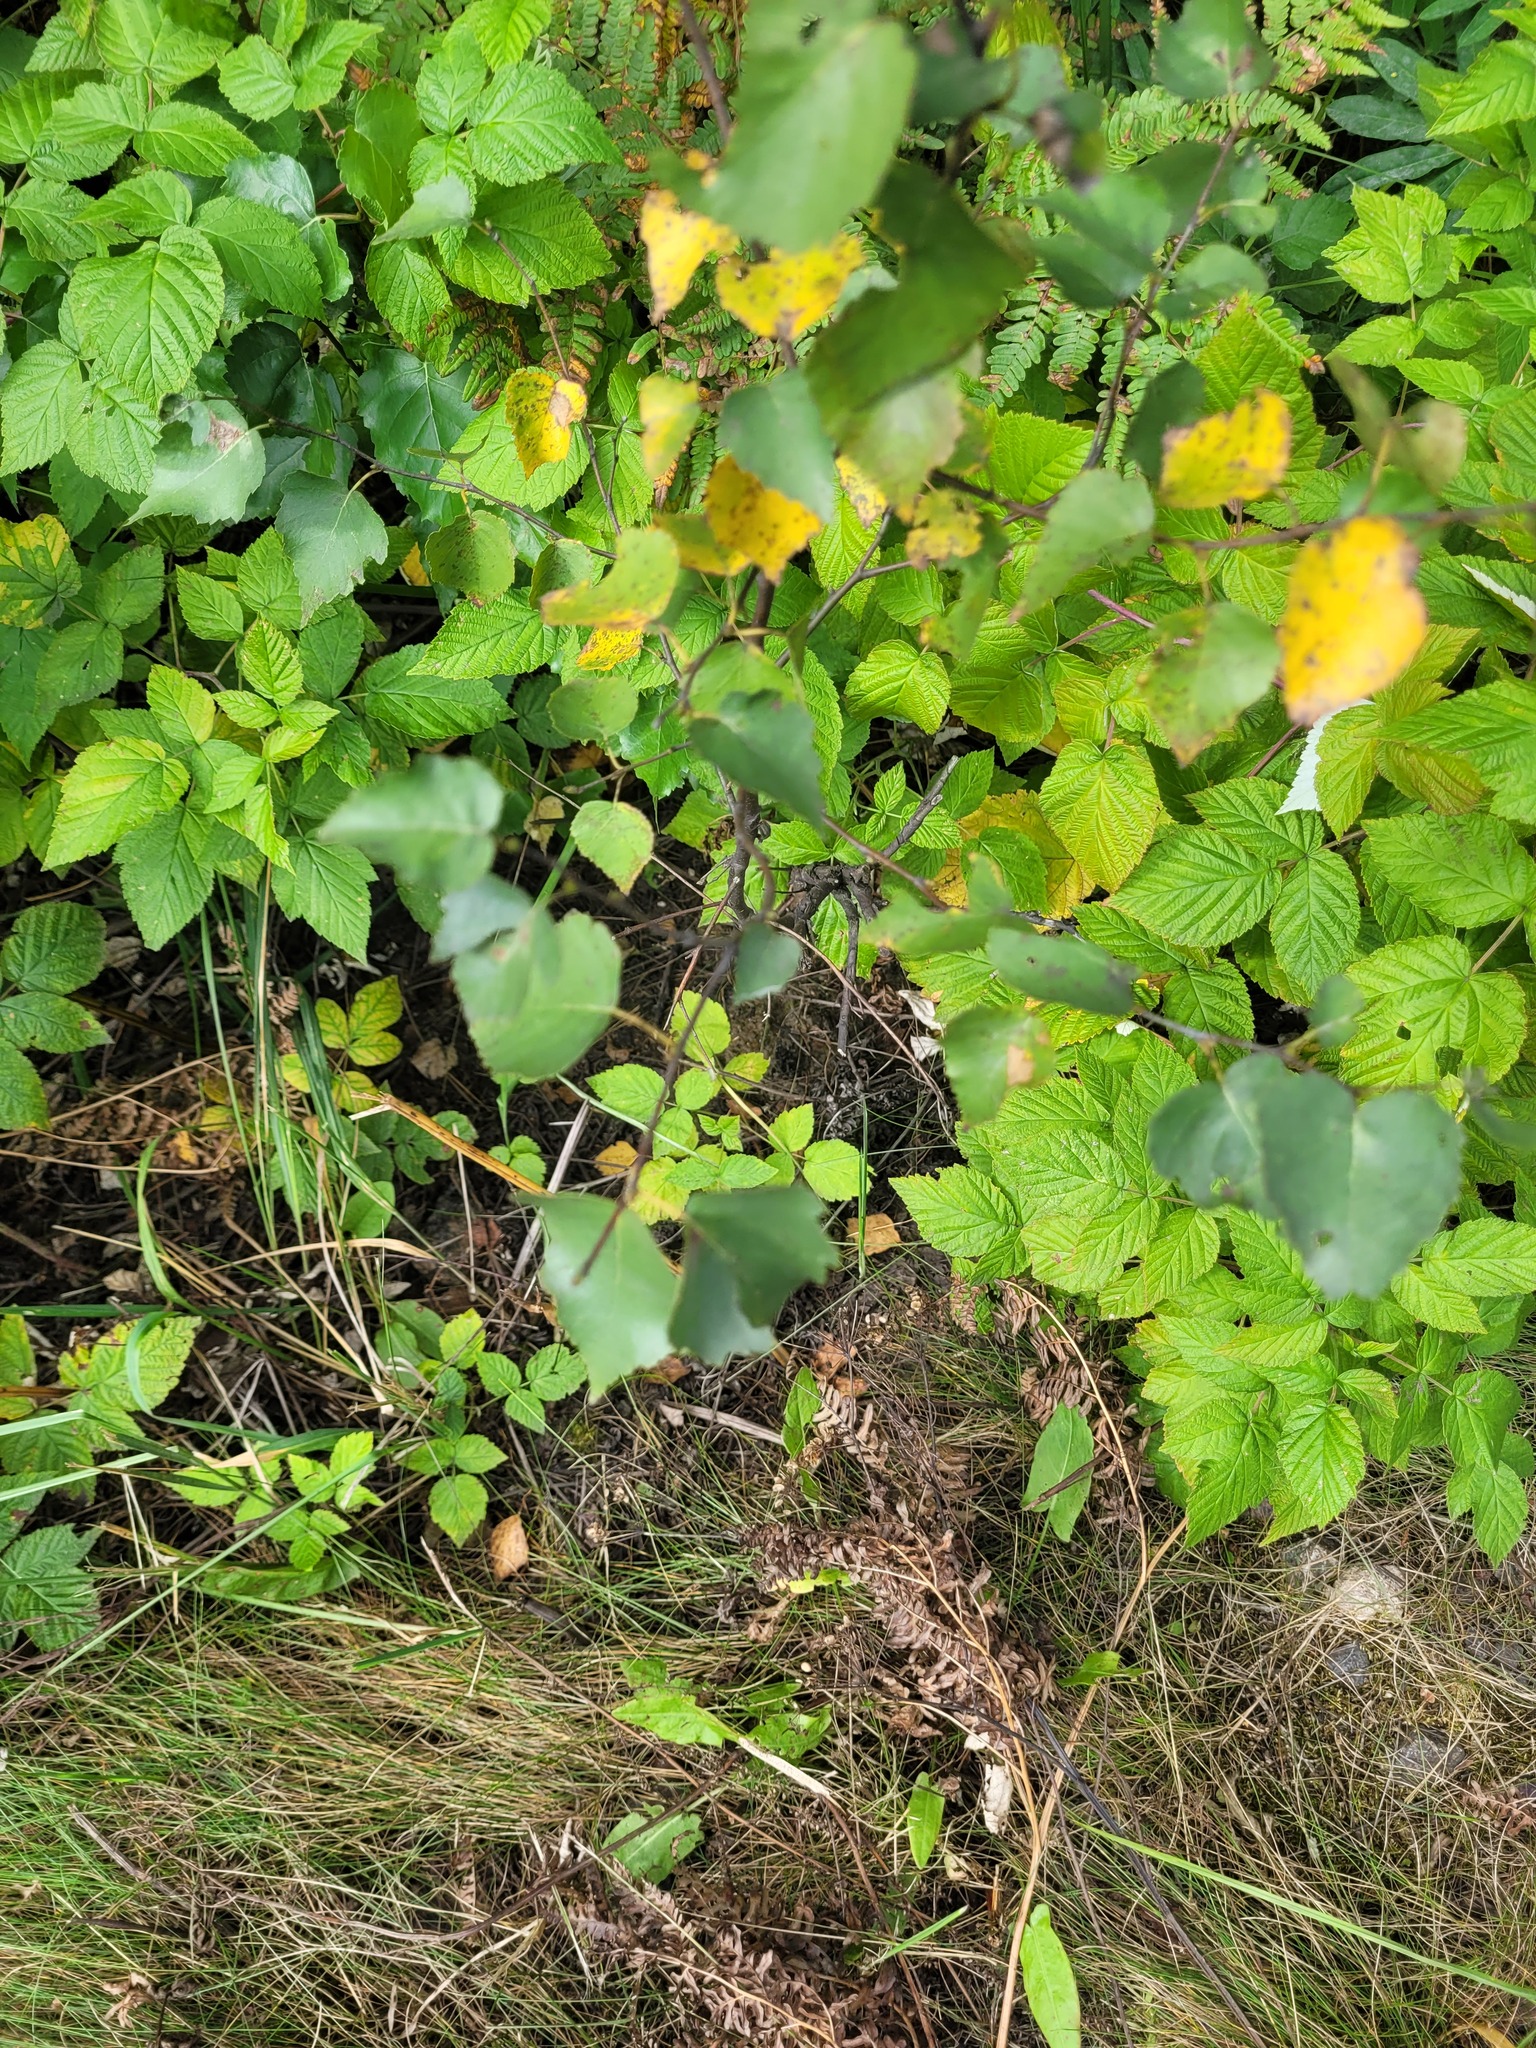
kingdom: Plantae
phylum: Tracheophyta
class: Magnoliopsida
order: Fagales
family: Betulaceae
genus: Betula
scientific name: Betula pendula
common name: Silver birch
